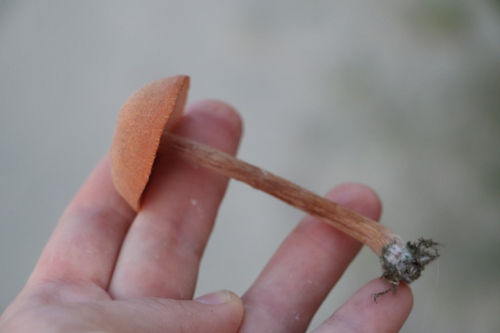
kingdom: Fungi
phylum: Basidiomycota
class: Agaricomycetes
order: Agaricales
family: Hydnangiaceae
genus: Laccaria
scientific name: Laccaria proxima
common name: Scurfy deceiver
